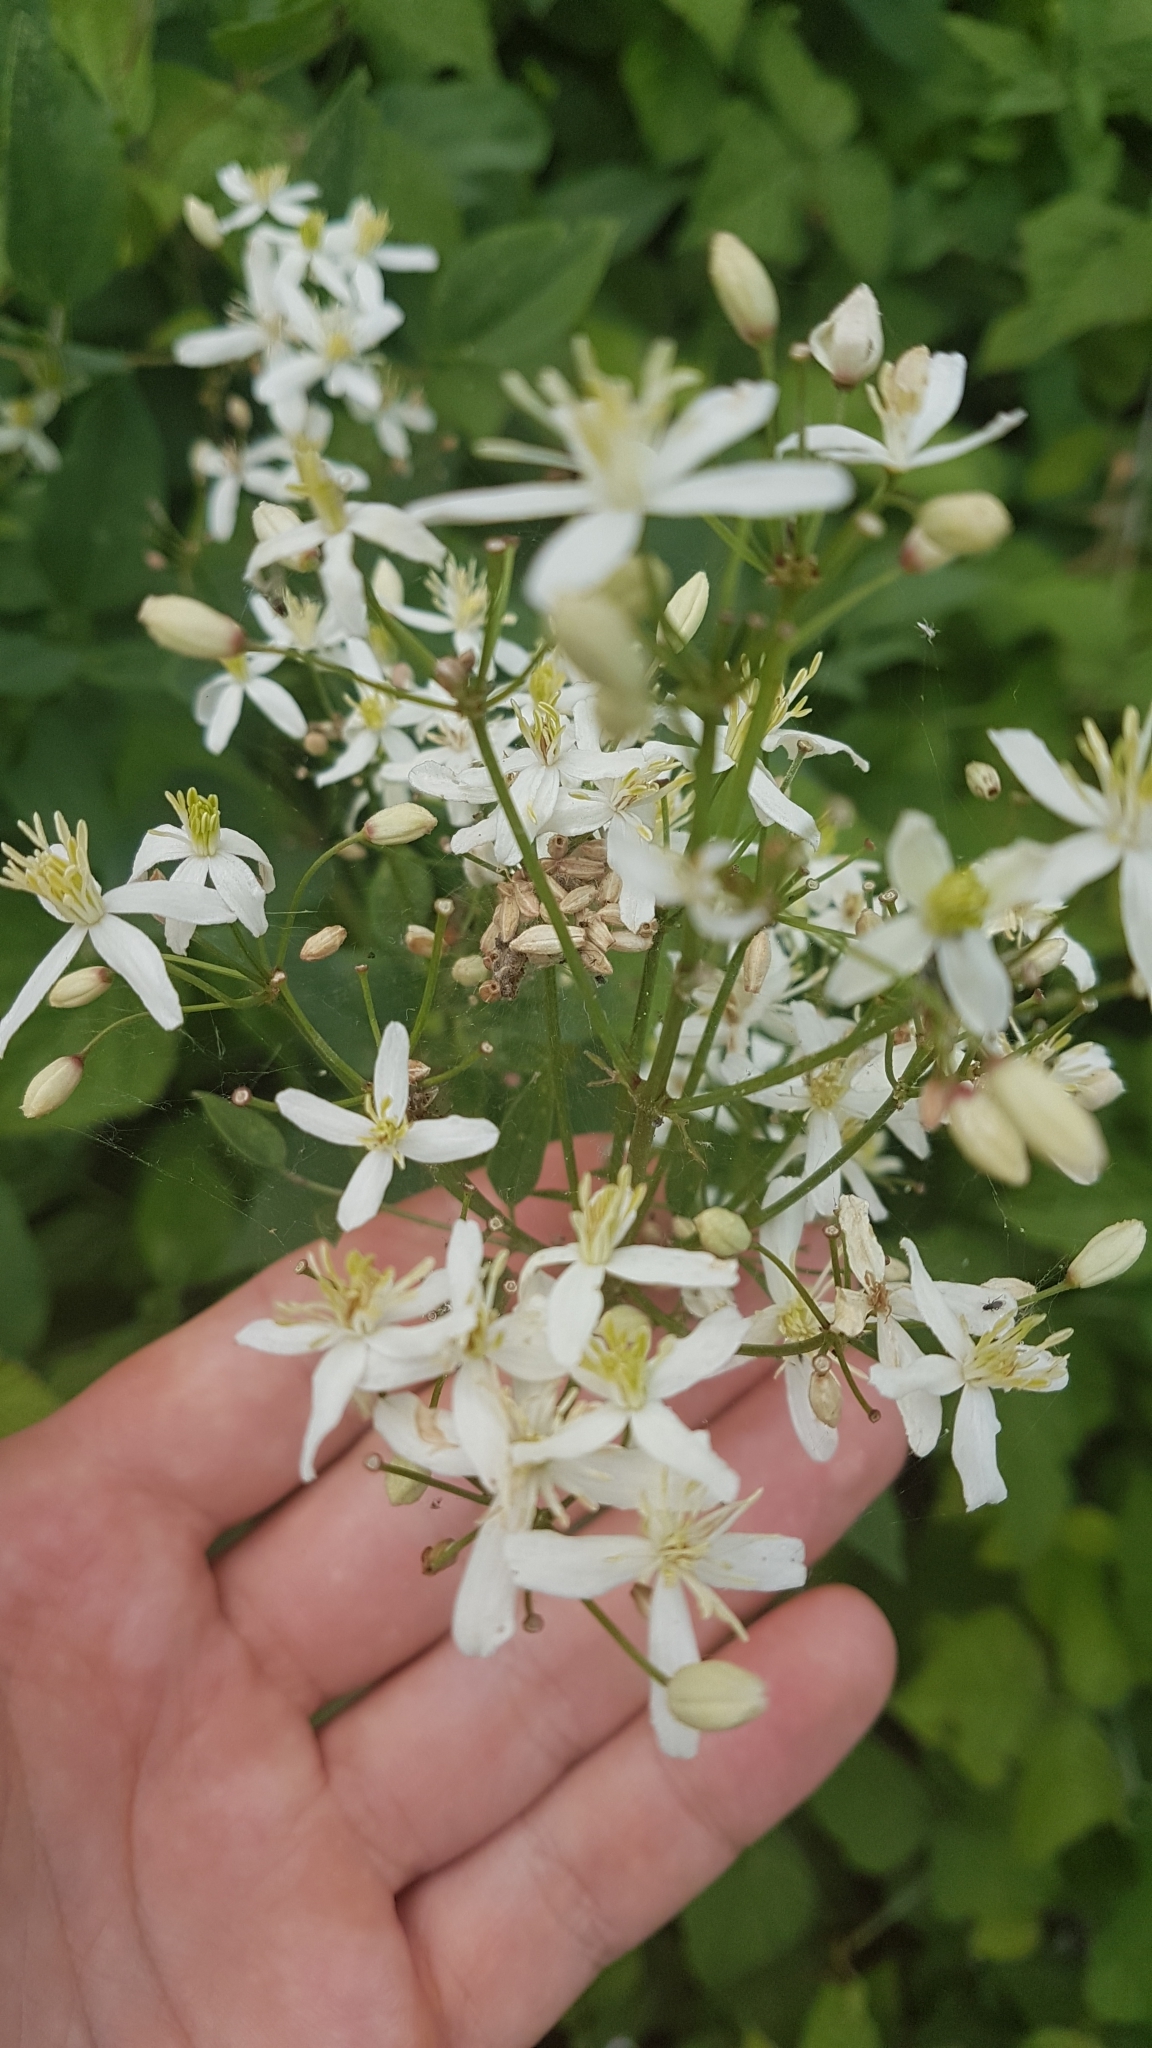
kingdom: Plantae
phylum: Tracheophyta
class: Magnoliopsida
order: Ranunculales
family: Ranunculaceae
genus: Clematis
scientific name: Clematis recta
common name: Ground clematis
